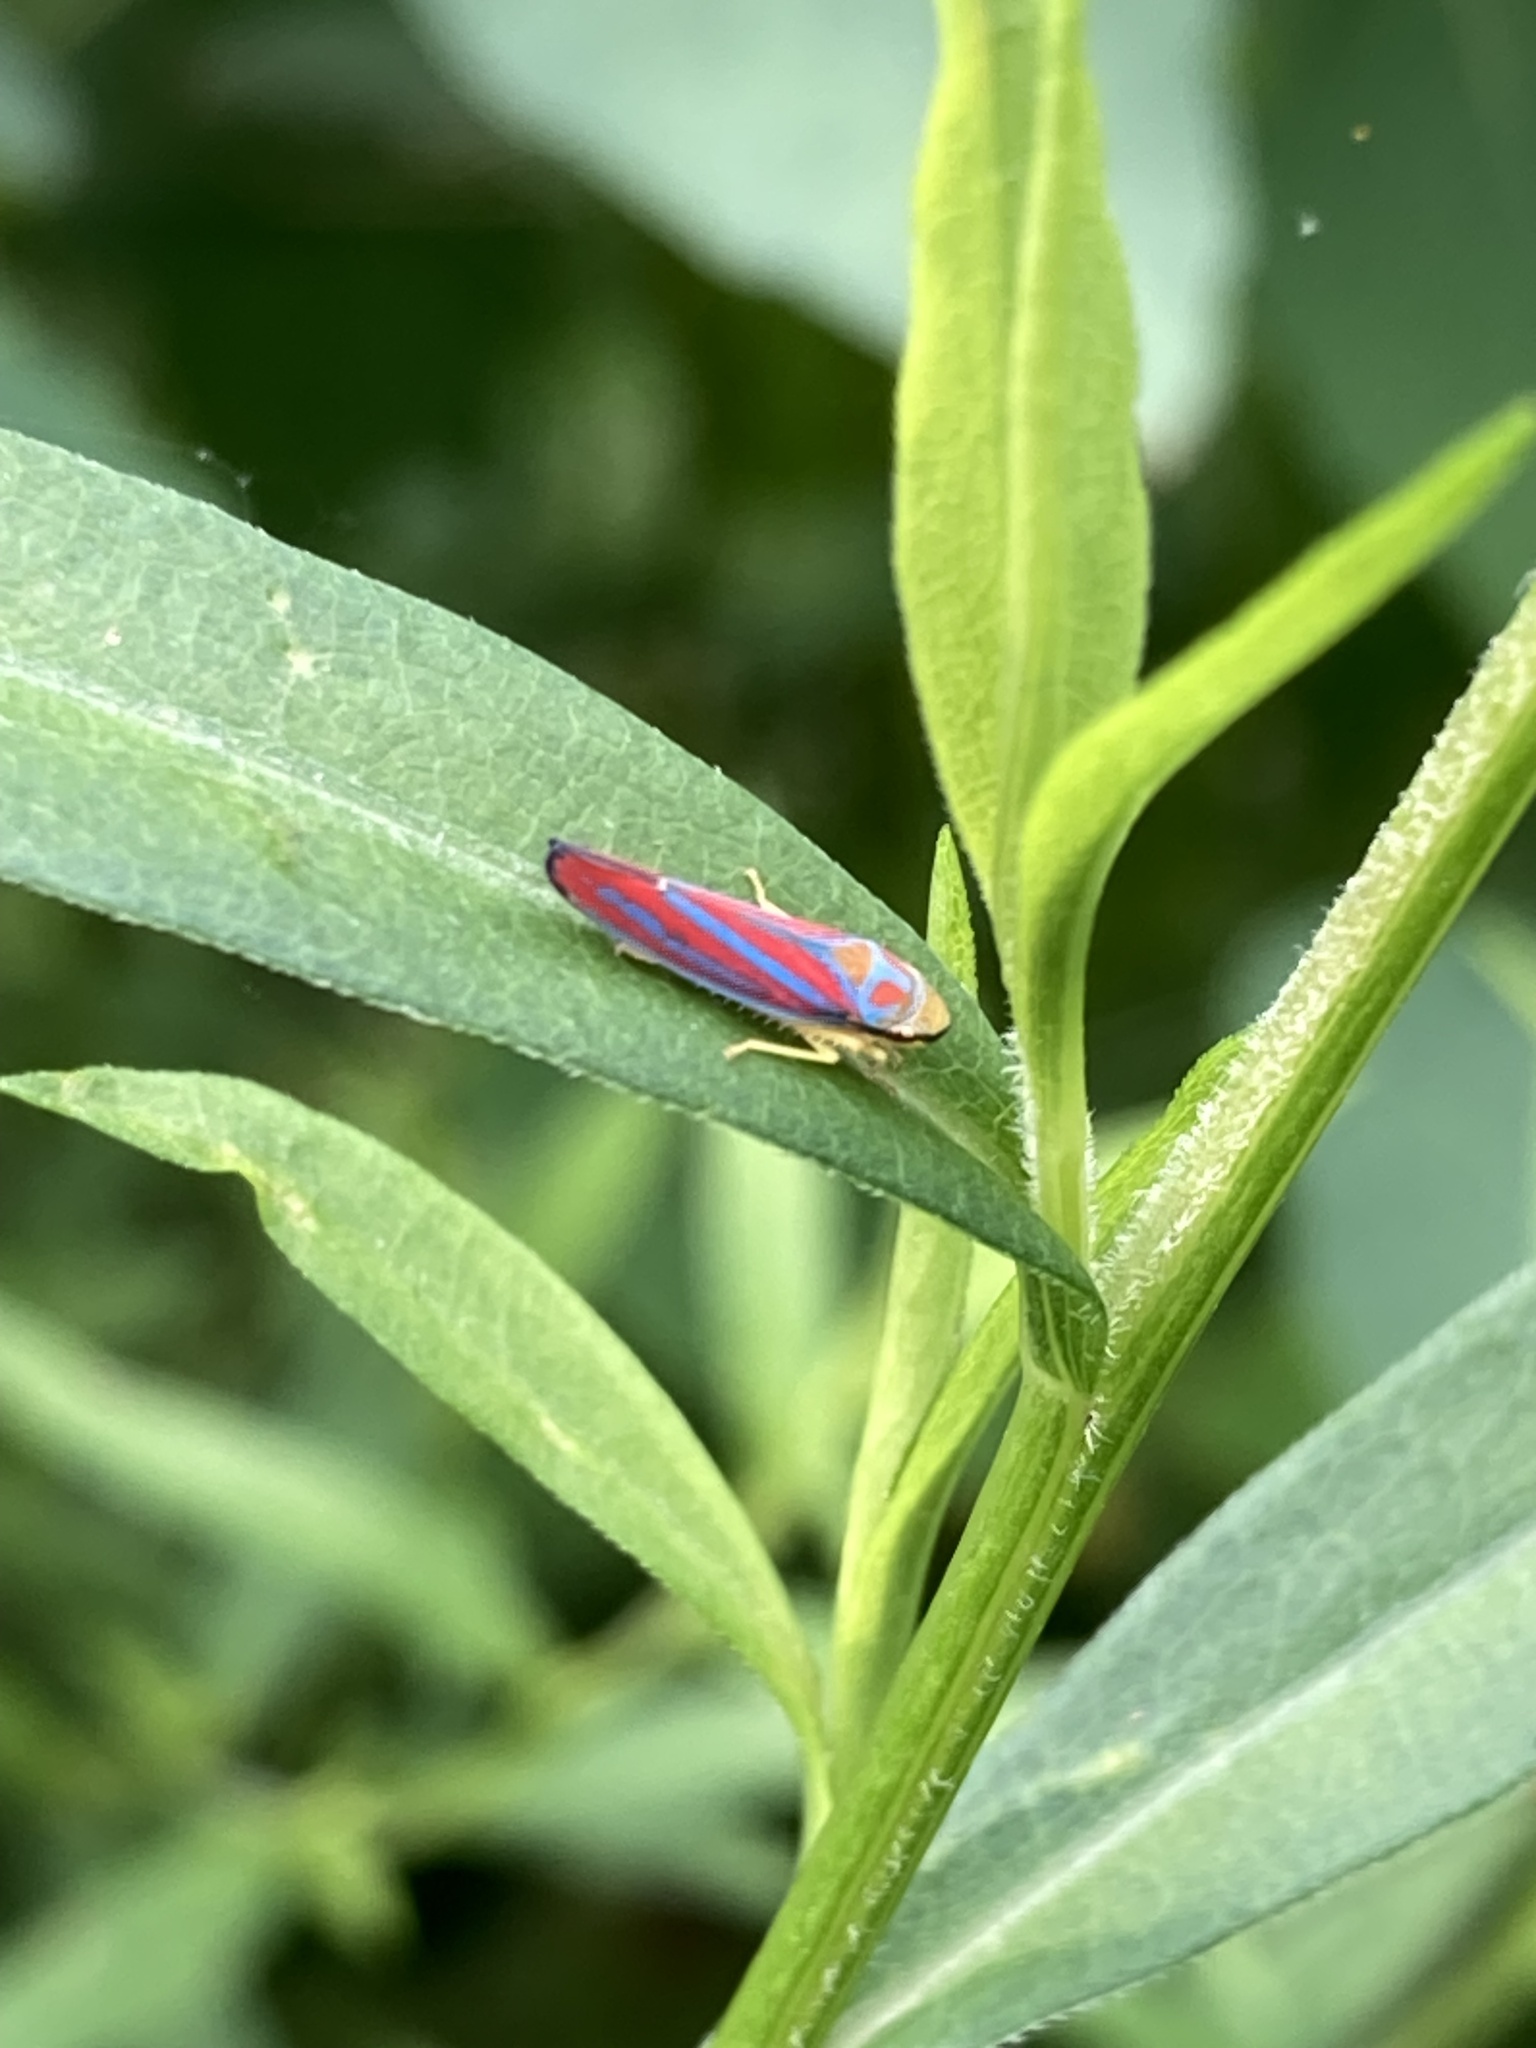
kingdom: Animalia
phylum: Arthropoda
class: Insecta
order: Hemiptera
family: Cicadellidae
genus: Graphocephala
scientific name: Graphocephala coccinea
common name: Candy-striped leafhopper
